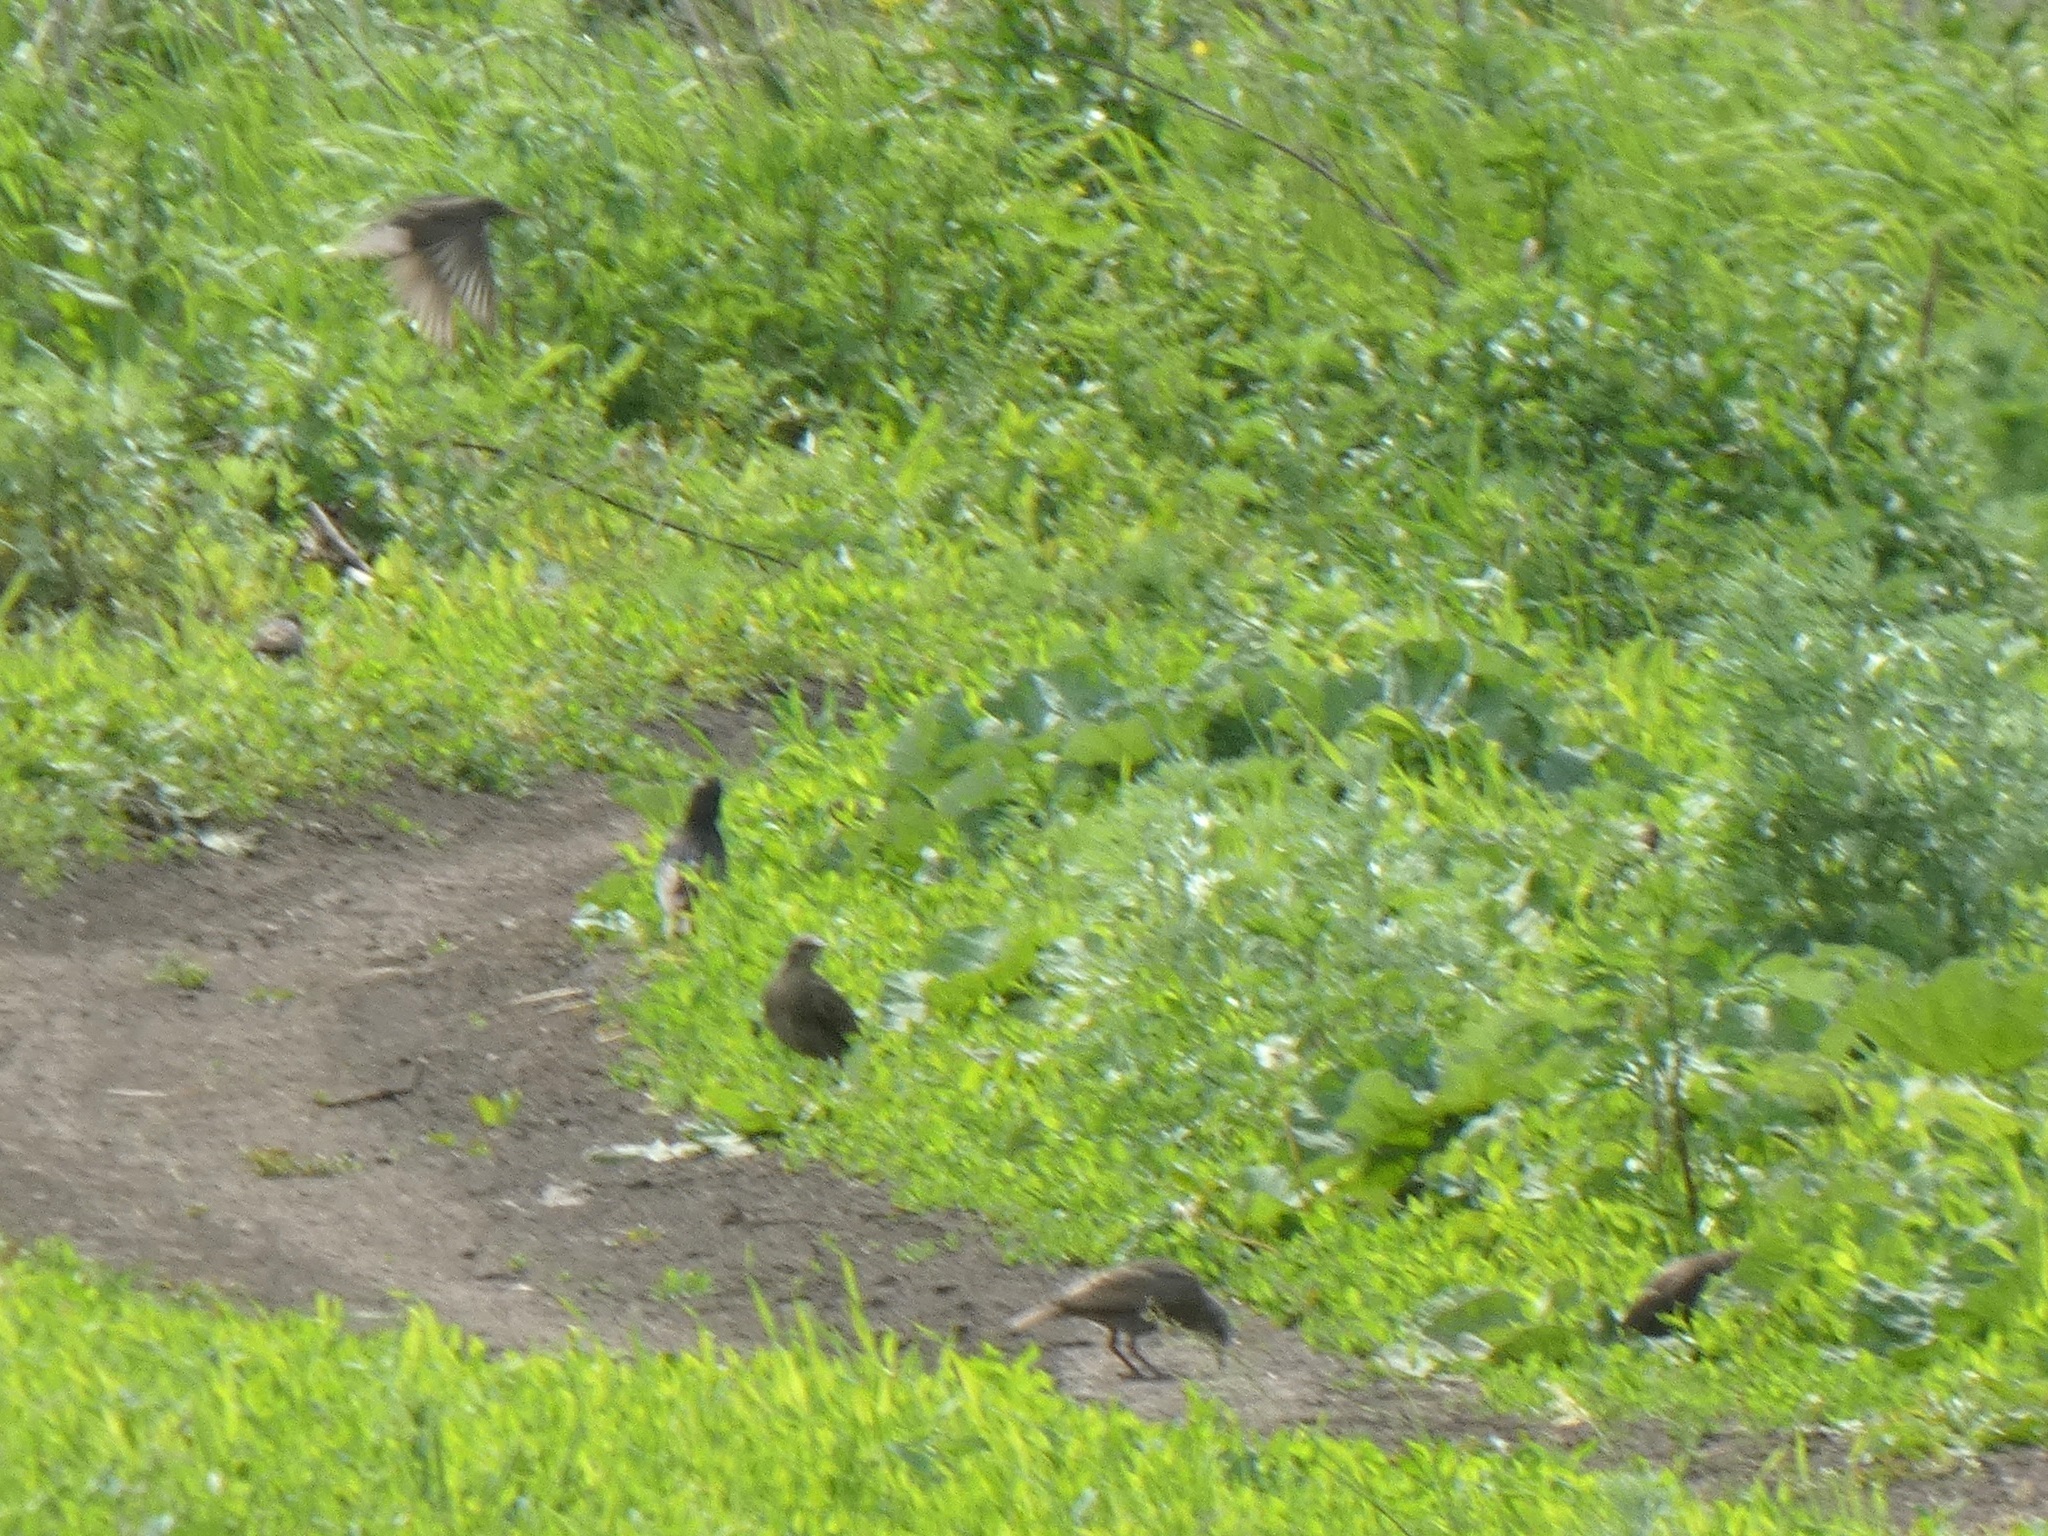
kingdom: Animalia
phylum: Chordata
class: Aves
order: Passeriformes
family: Sturnidae
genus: Sturnus
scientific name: Sturnus vulgaris
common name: Common starling
